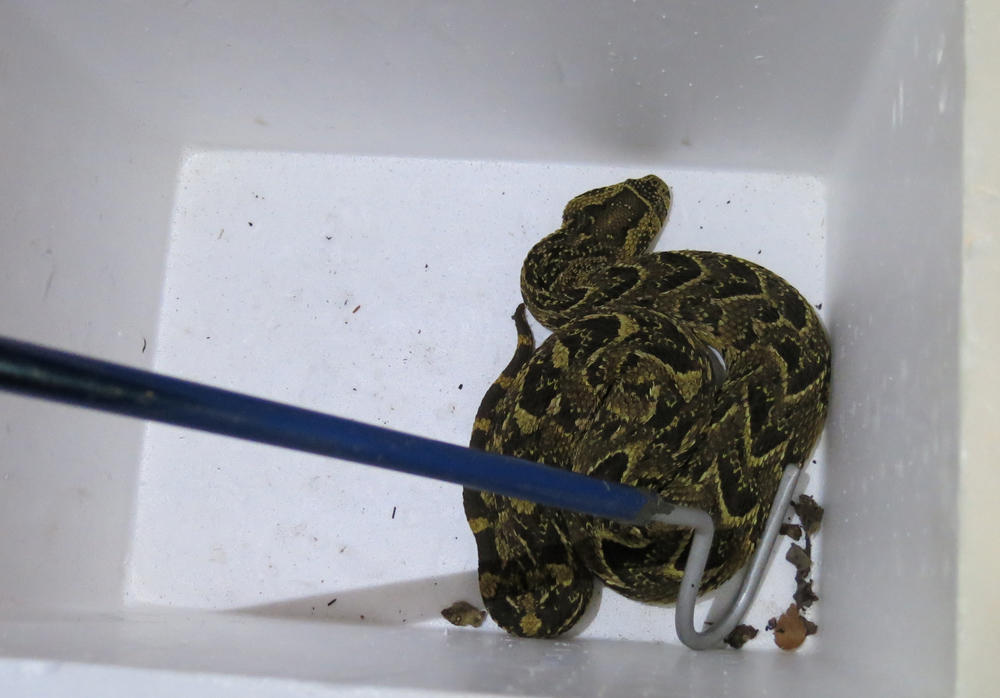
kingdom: Animalia
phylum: Chordata
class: Squamata
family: Viperidae
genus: Bitis
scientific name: Bitis arietans
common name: Puff adder
